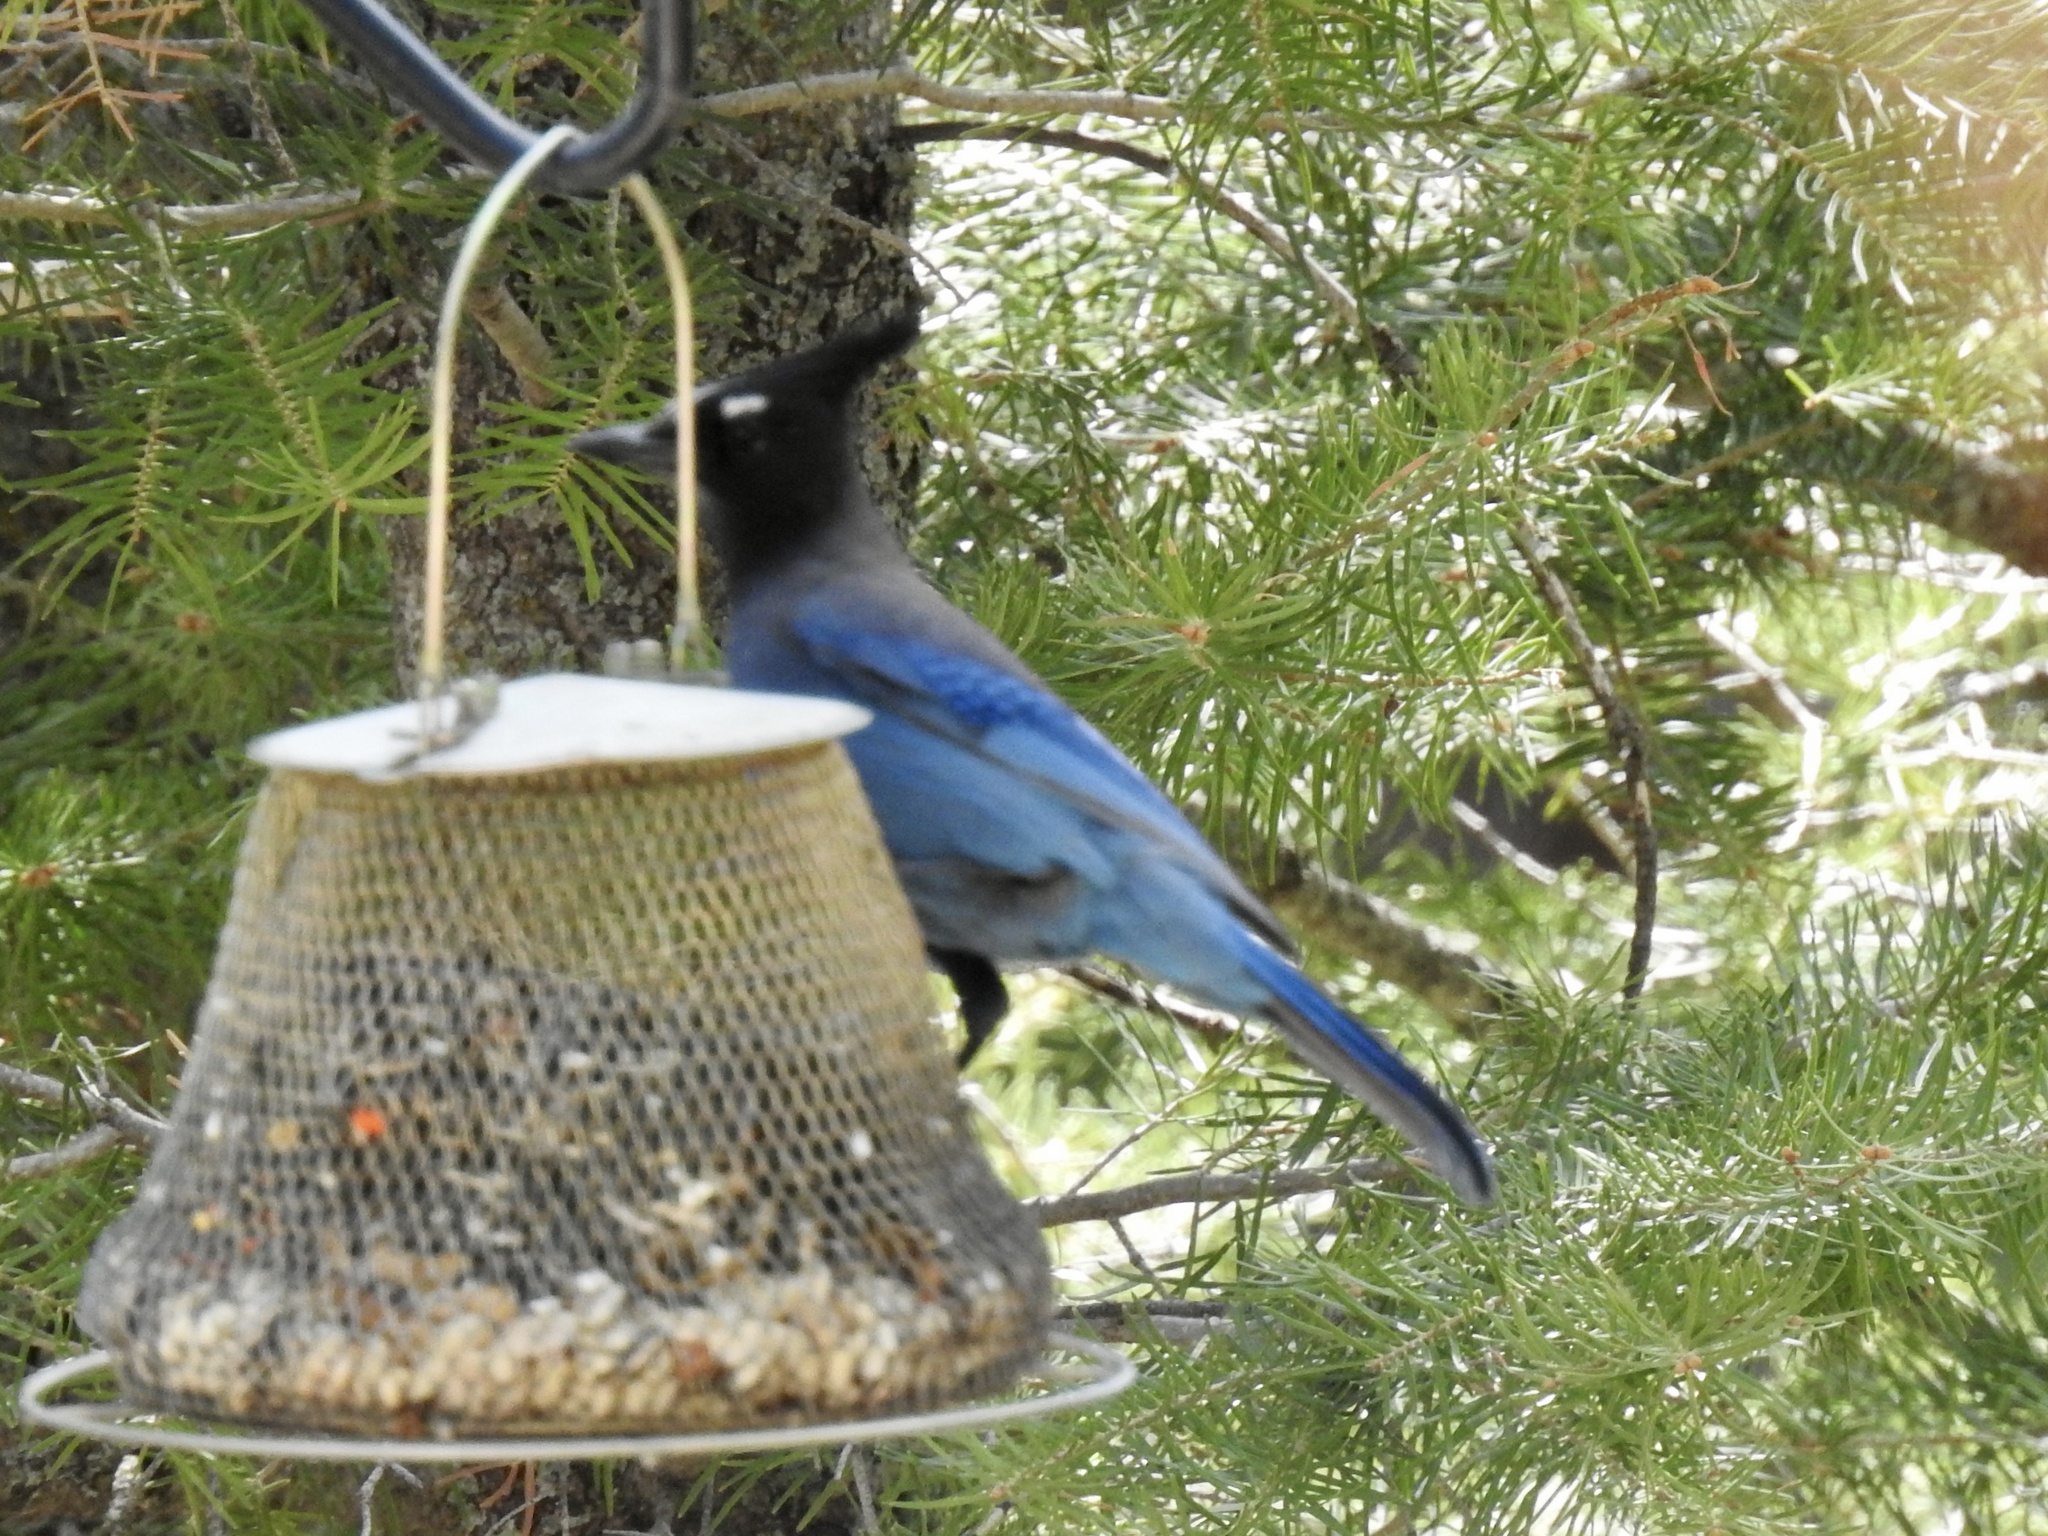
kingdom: Animalia
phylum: Chordata
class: Aves
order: Passeriformes
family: Corvidae
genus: Cyanocitta
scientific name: Cyanocitta stelleri
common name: Steller's jay
